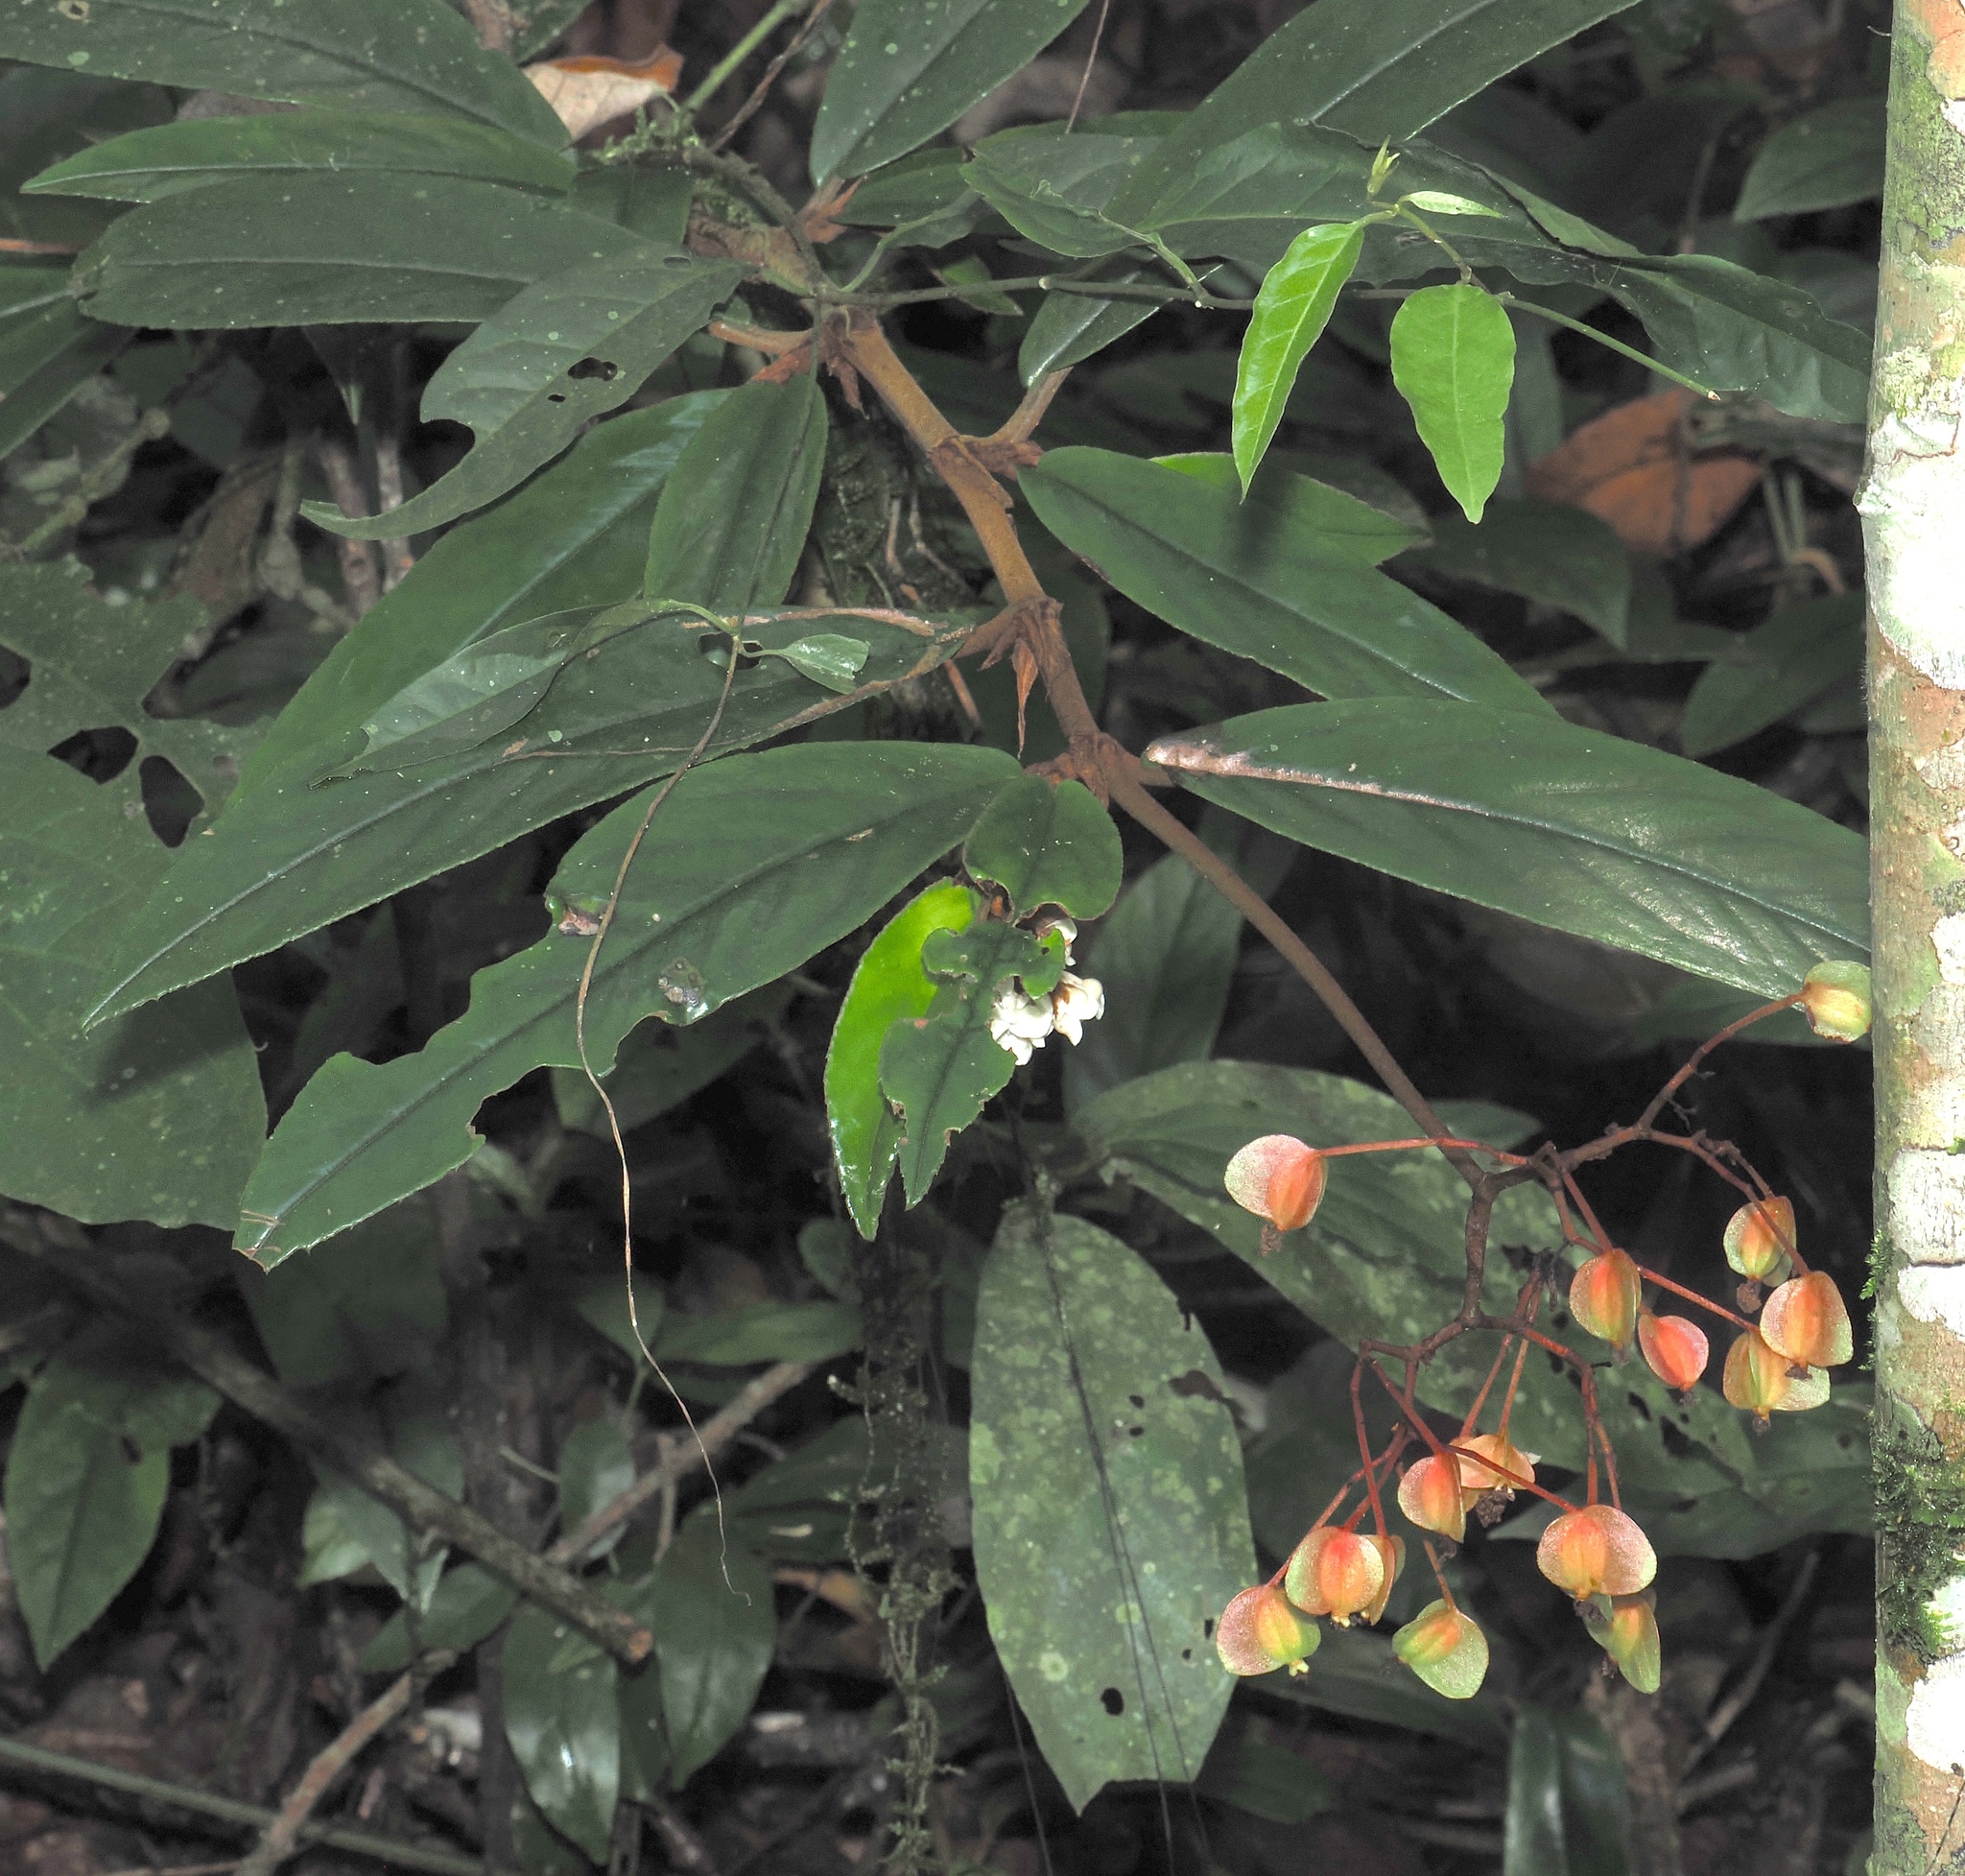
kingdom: Plantae
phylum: Tracheophyta
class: Magnoliopsida
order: Cucurbitales
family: Begoniaceae
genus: Begonia
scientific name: Begonia stenophylla
